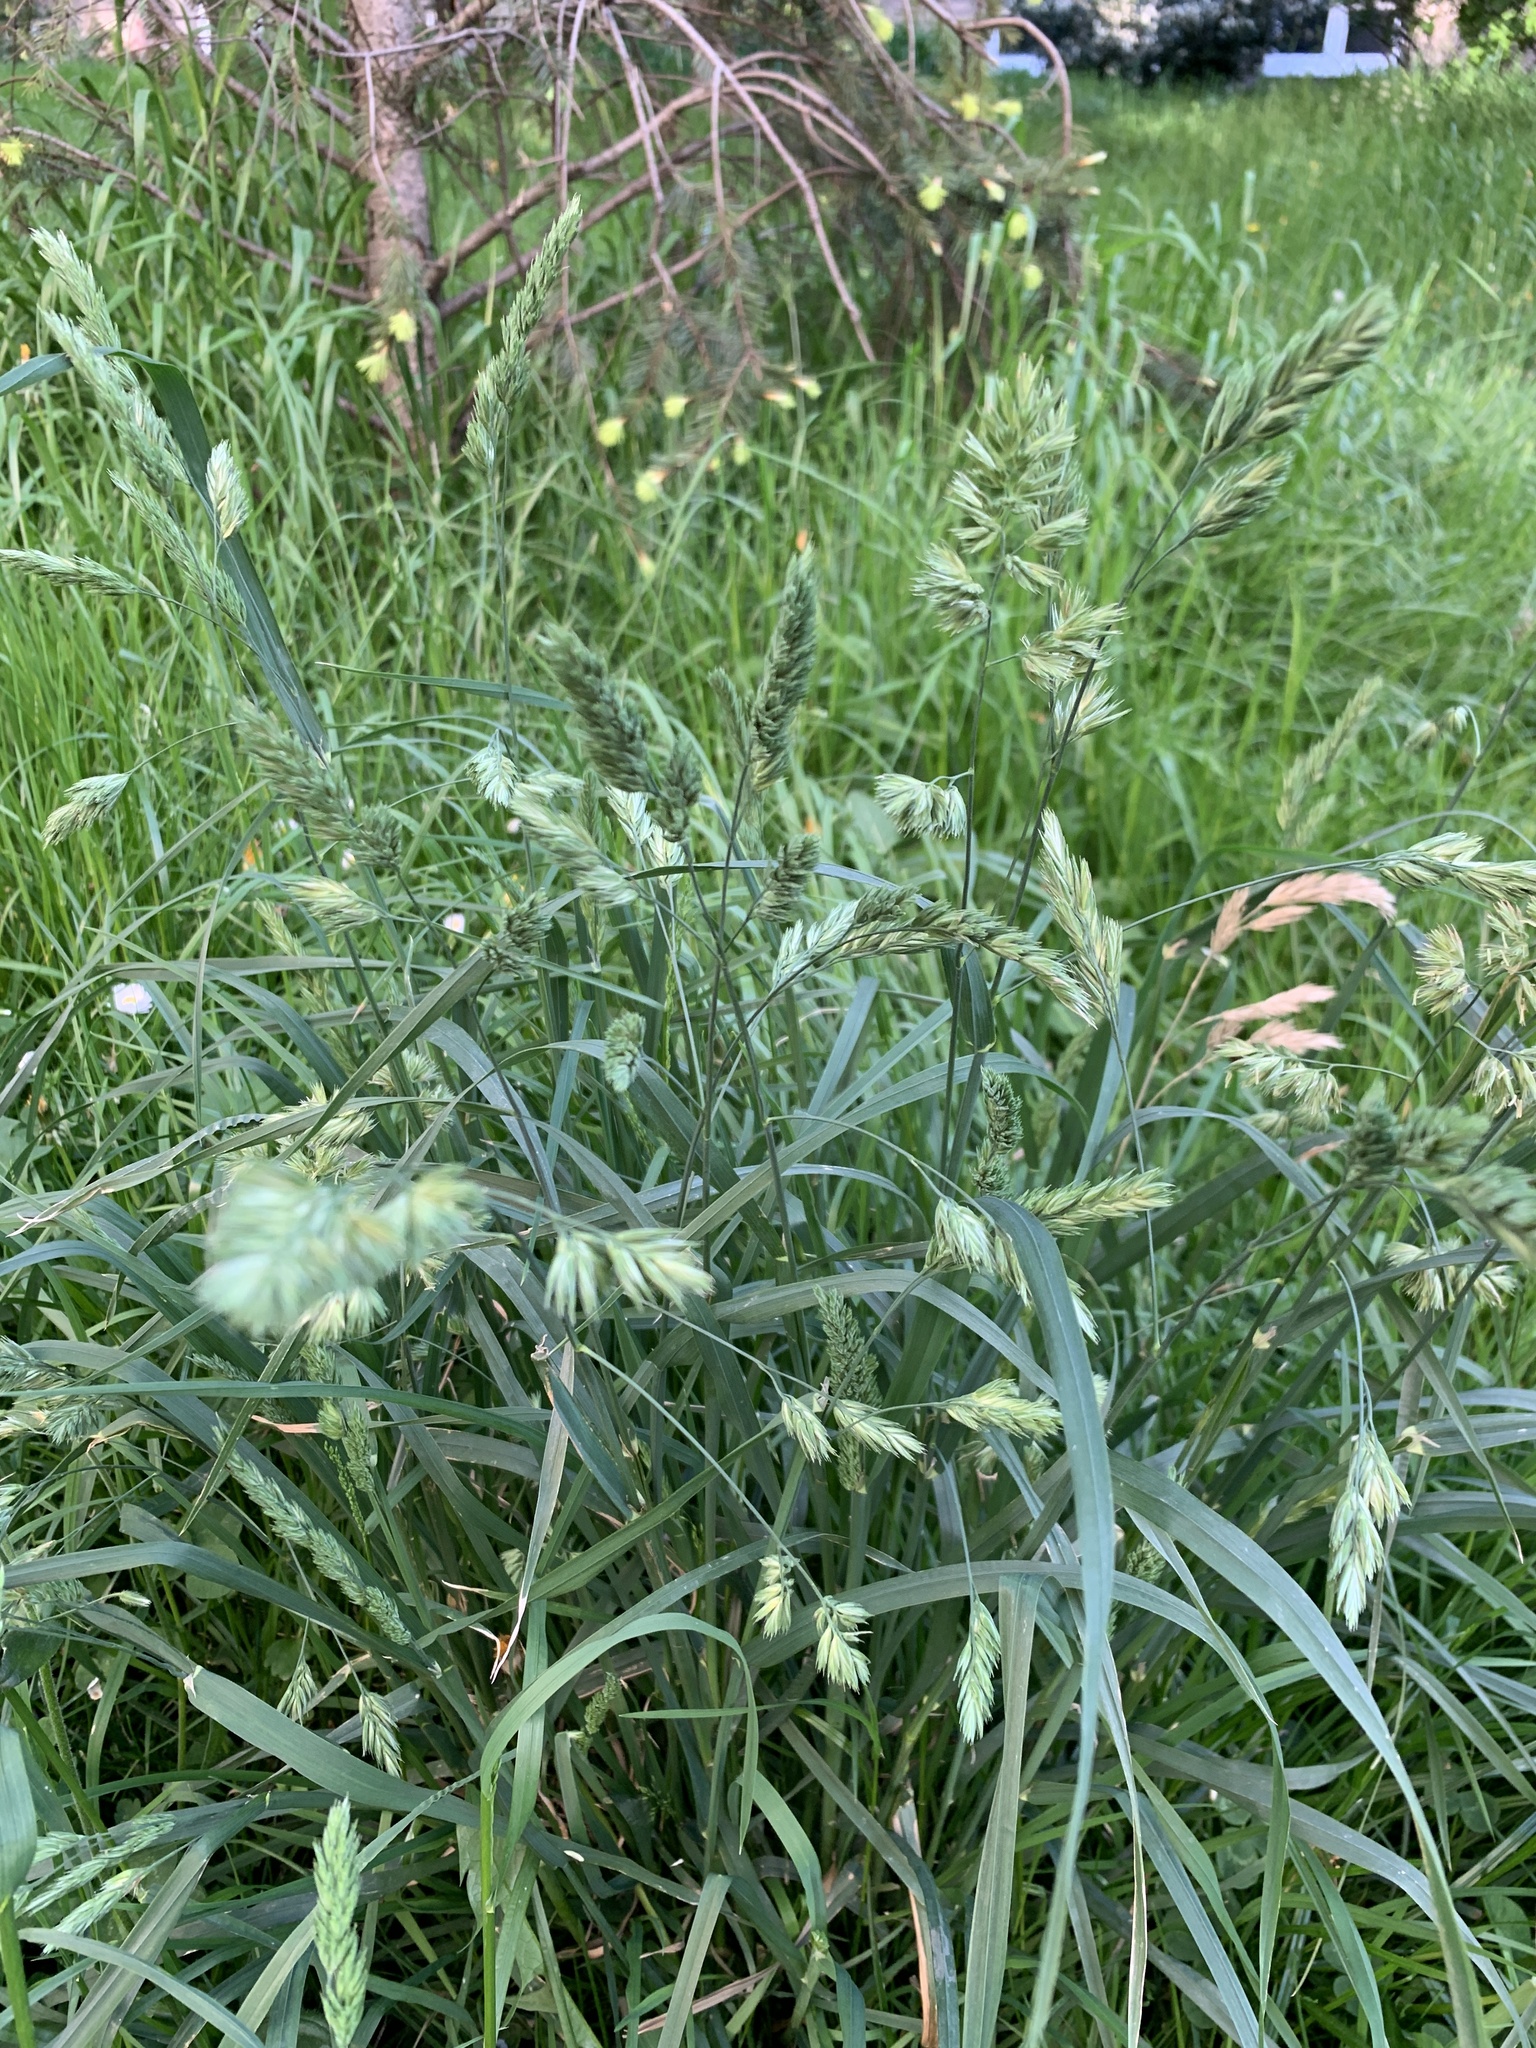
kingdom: Plantae
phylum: Tracheophyta
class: Liliopsida
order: Poales
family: Poaceae
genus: Dactylis
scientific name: Dactylis glomerata
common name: Orchardgrass
